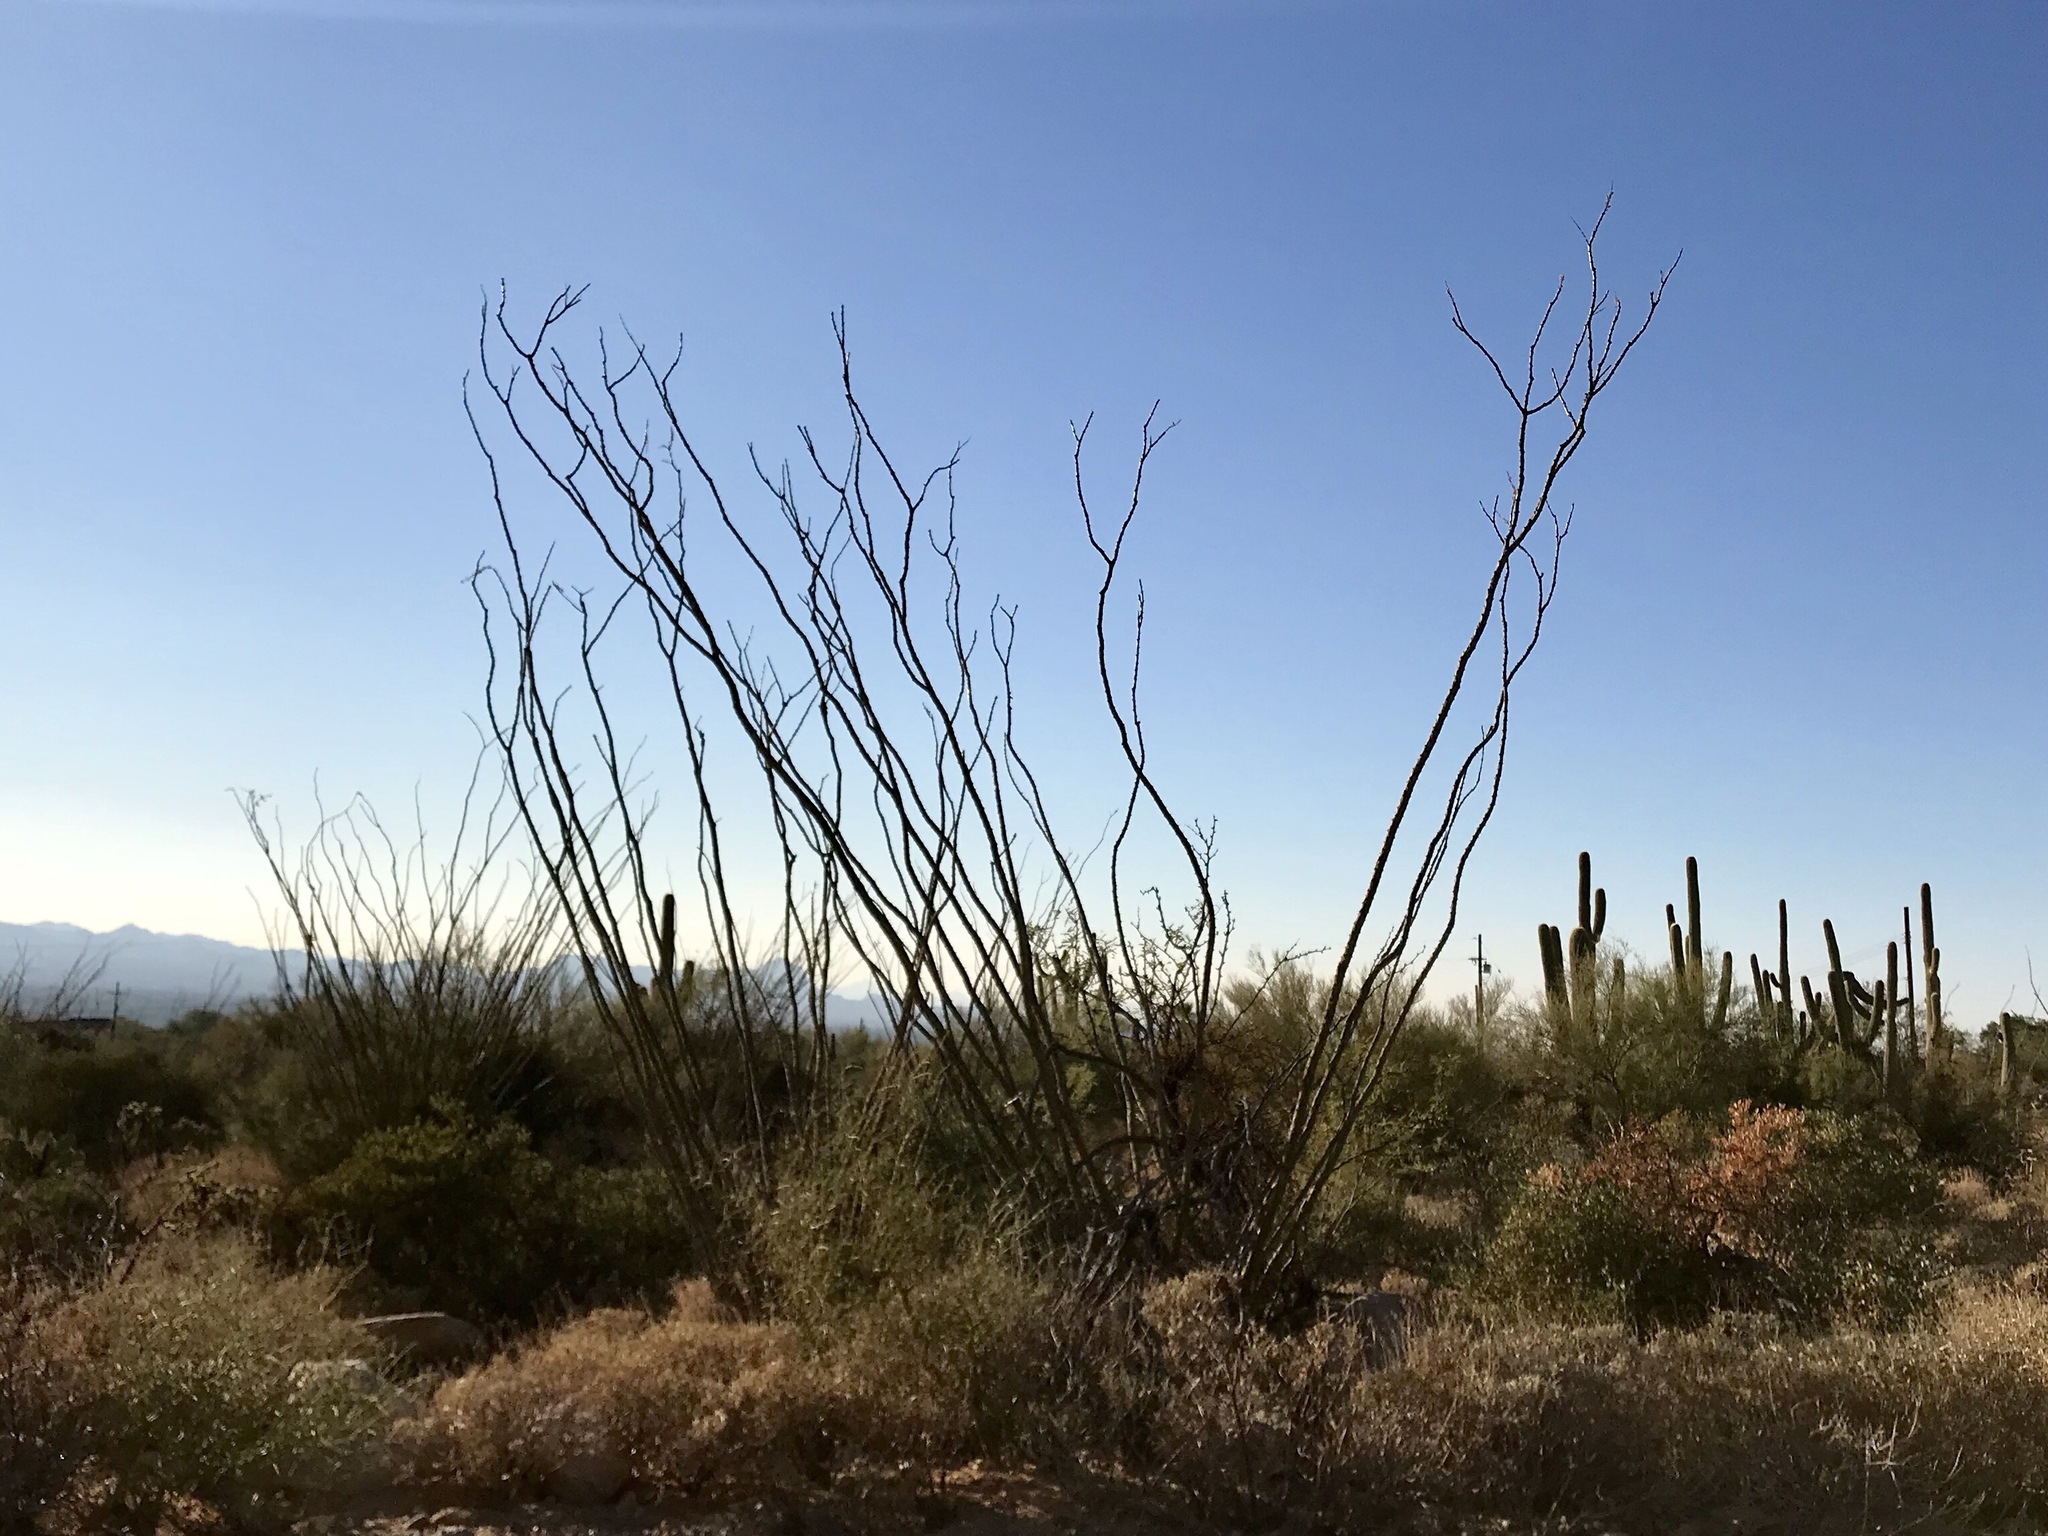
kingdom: Plantae
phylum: Tracheophyta
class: Magnoliopsida
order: Ericales
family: Fouquieriaceae
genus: Fouquieria
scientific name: Fouquieria splendens
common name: Vine-cactus
